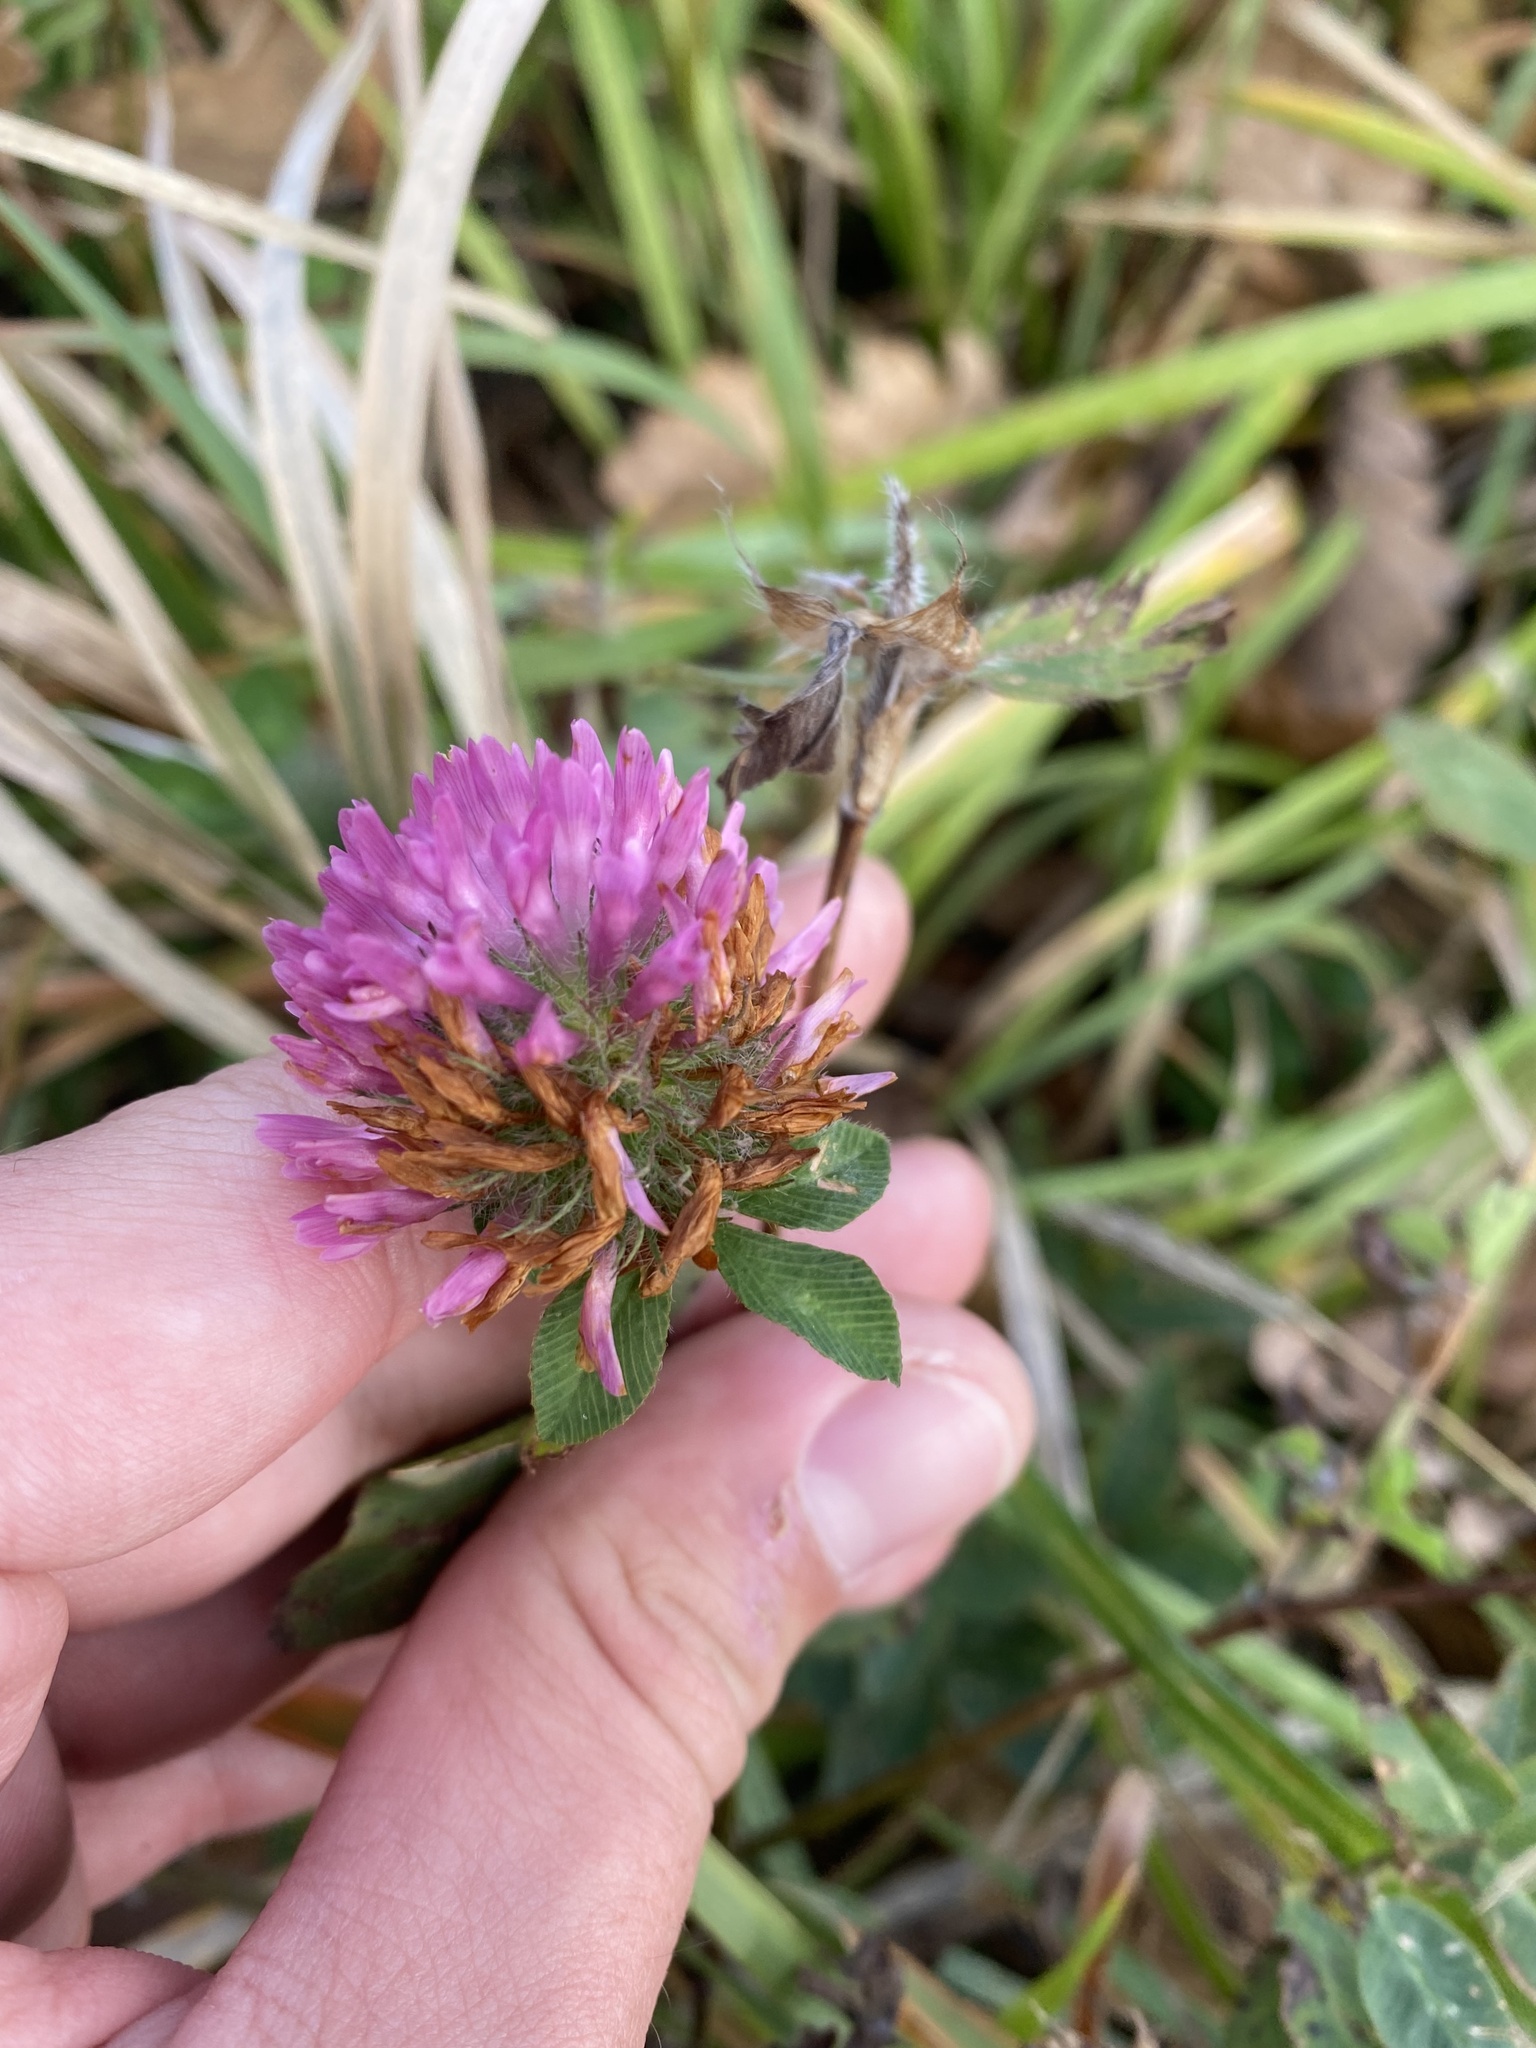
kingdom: Plantae
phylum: Tracheophyta
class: Magnoliopsida
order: Fabales
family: Fabaceae
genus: Trifolium
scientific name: Trifolium pratense
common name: Red clover
